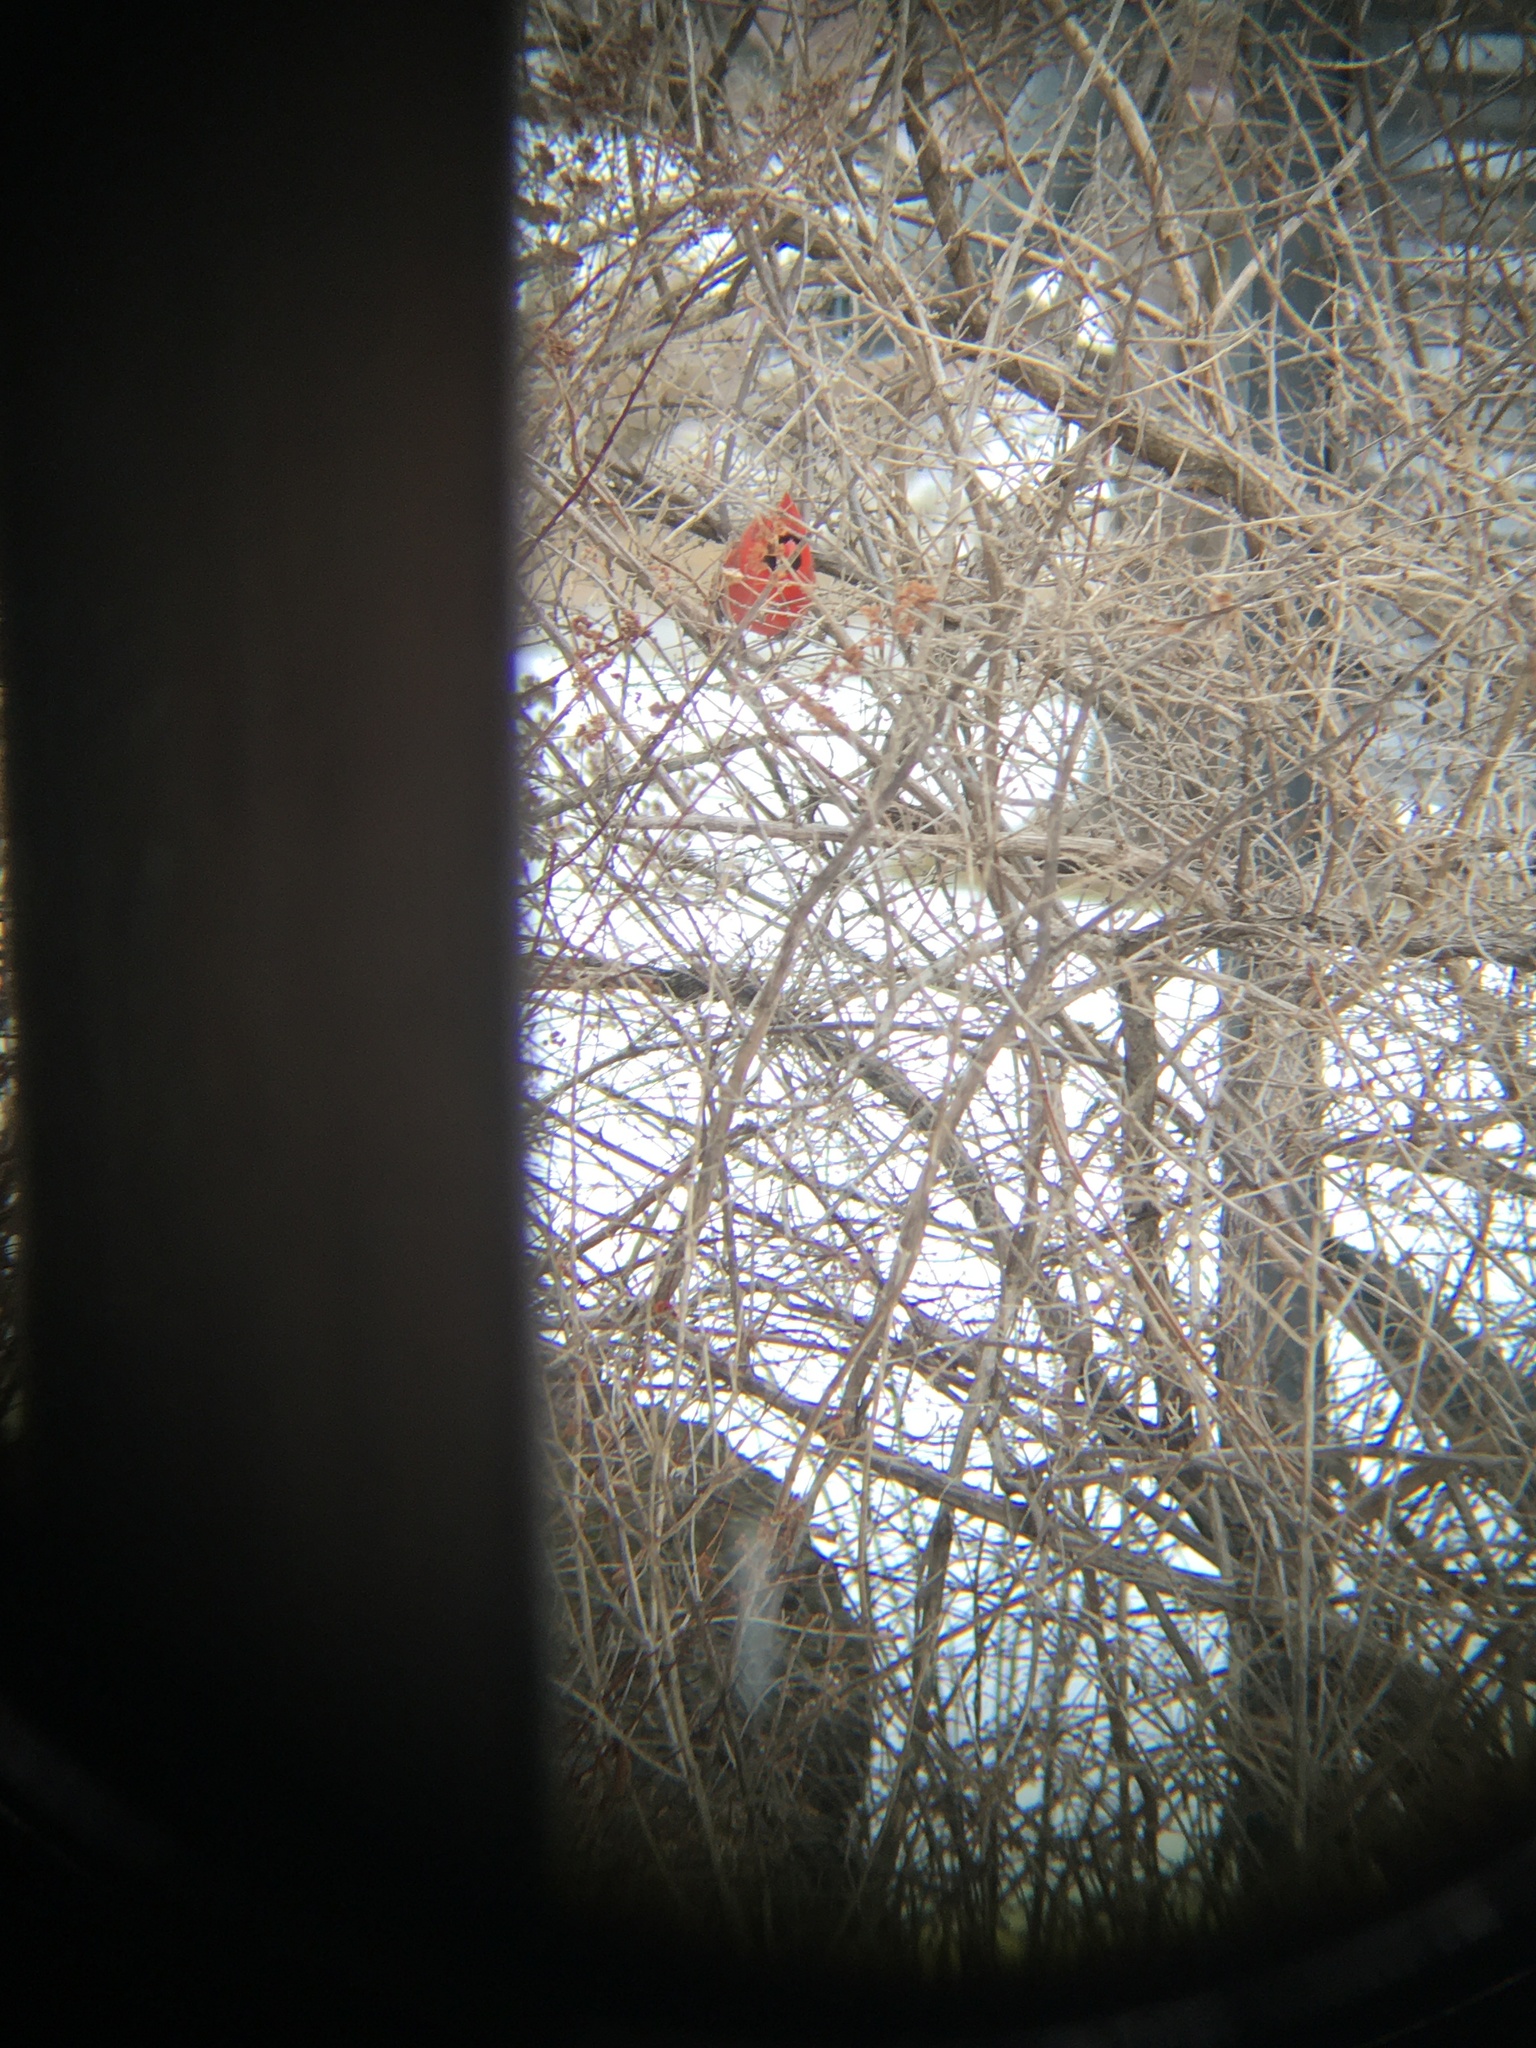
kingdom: Animalia
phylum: Chordata
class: Aves
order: Passeriformes
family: Cardinalidae
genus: Cardinalis
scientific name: Cardinalis cardinalis
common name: Northern cardinal
